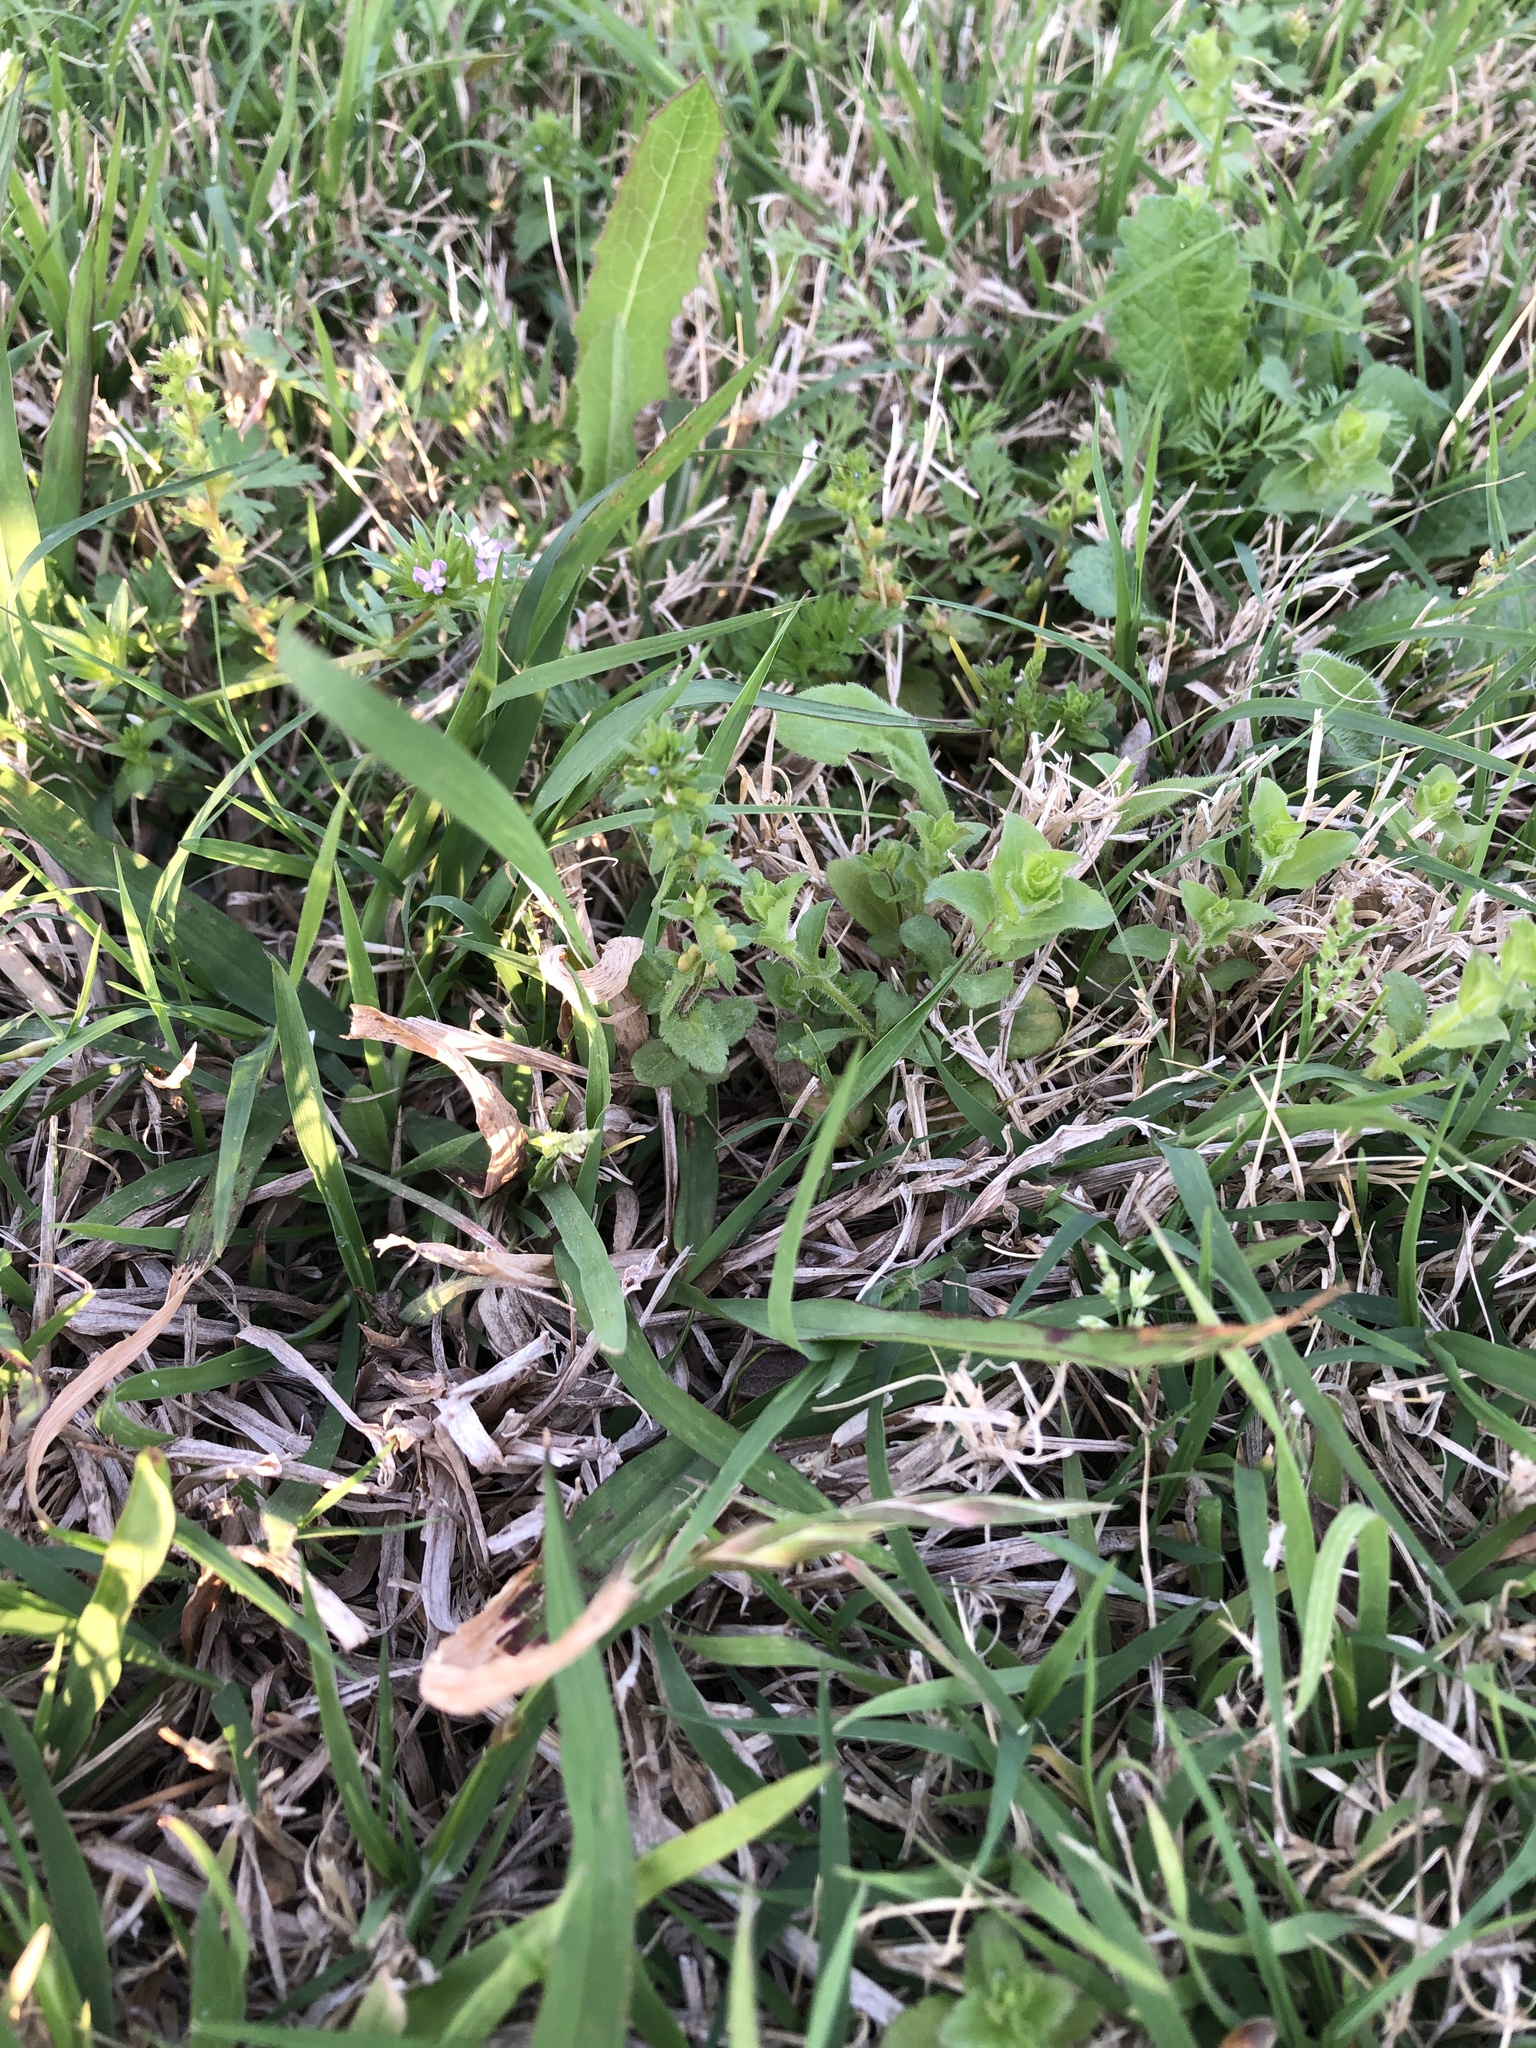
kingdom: Plantae
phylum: Tracheophyta
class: Magnoliopsida
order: Lamiales
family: Plantaginaceae
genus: Veronica
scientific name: Veronica arvensis
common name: Corn speedwell
